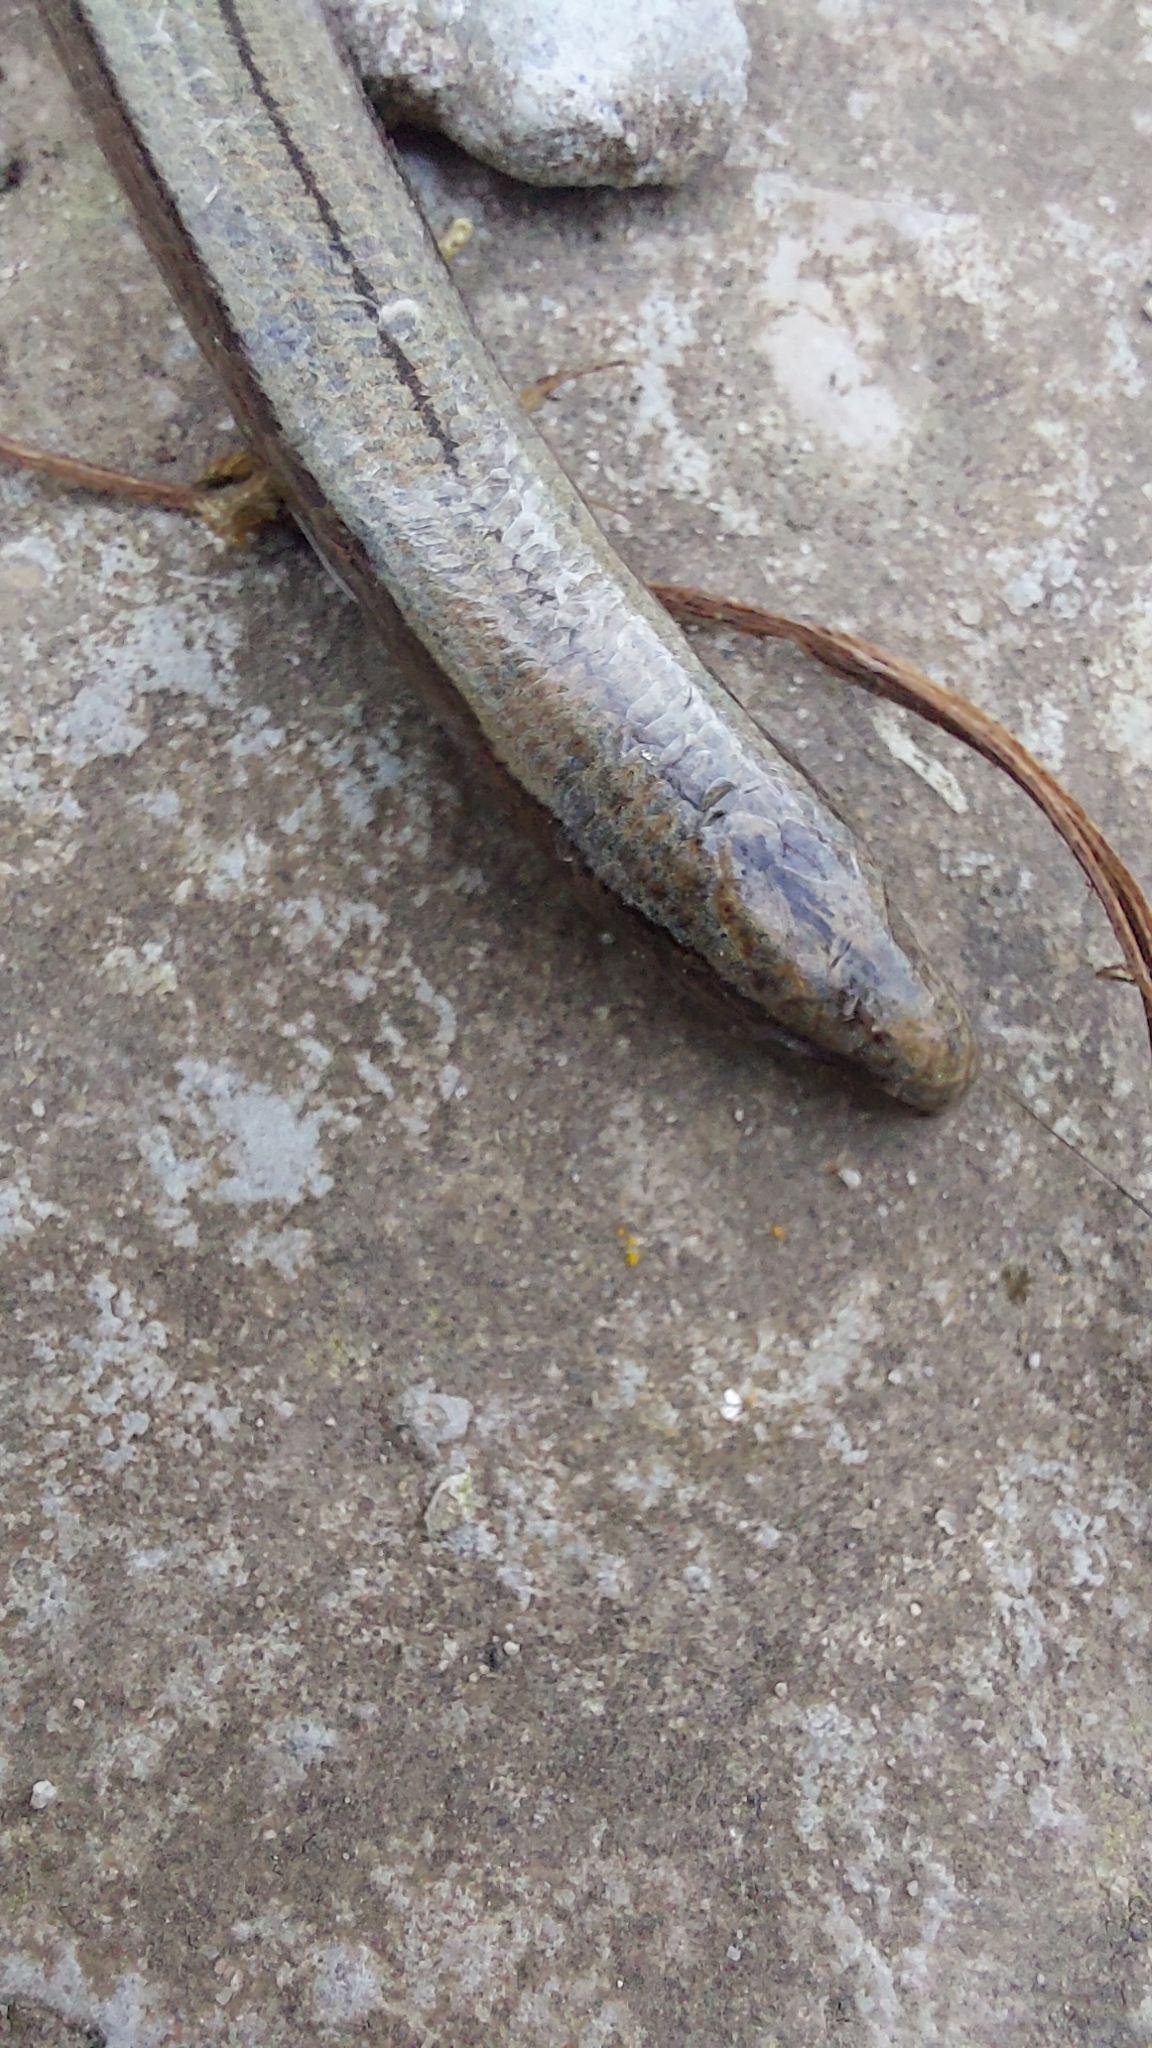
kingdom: Animalia
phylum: Chordata
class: Squamata
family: Anguidae
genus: Anguis
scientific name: Anguis colchica
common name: Slow worm
